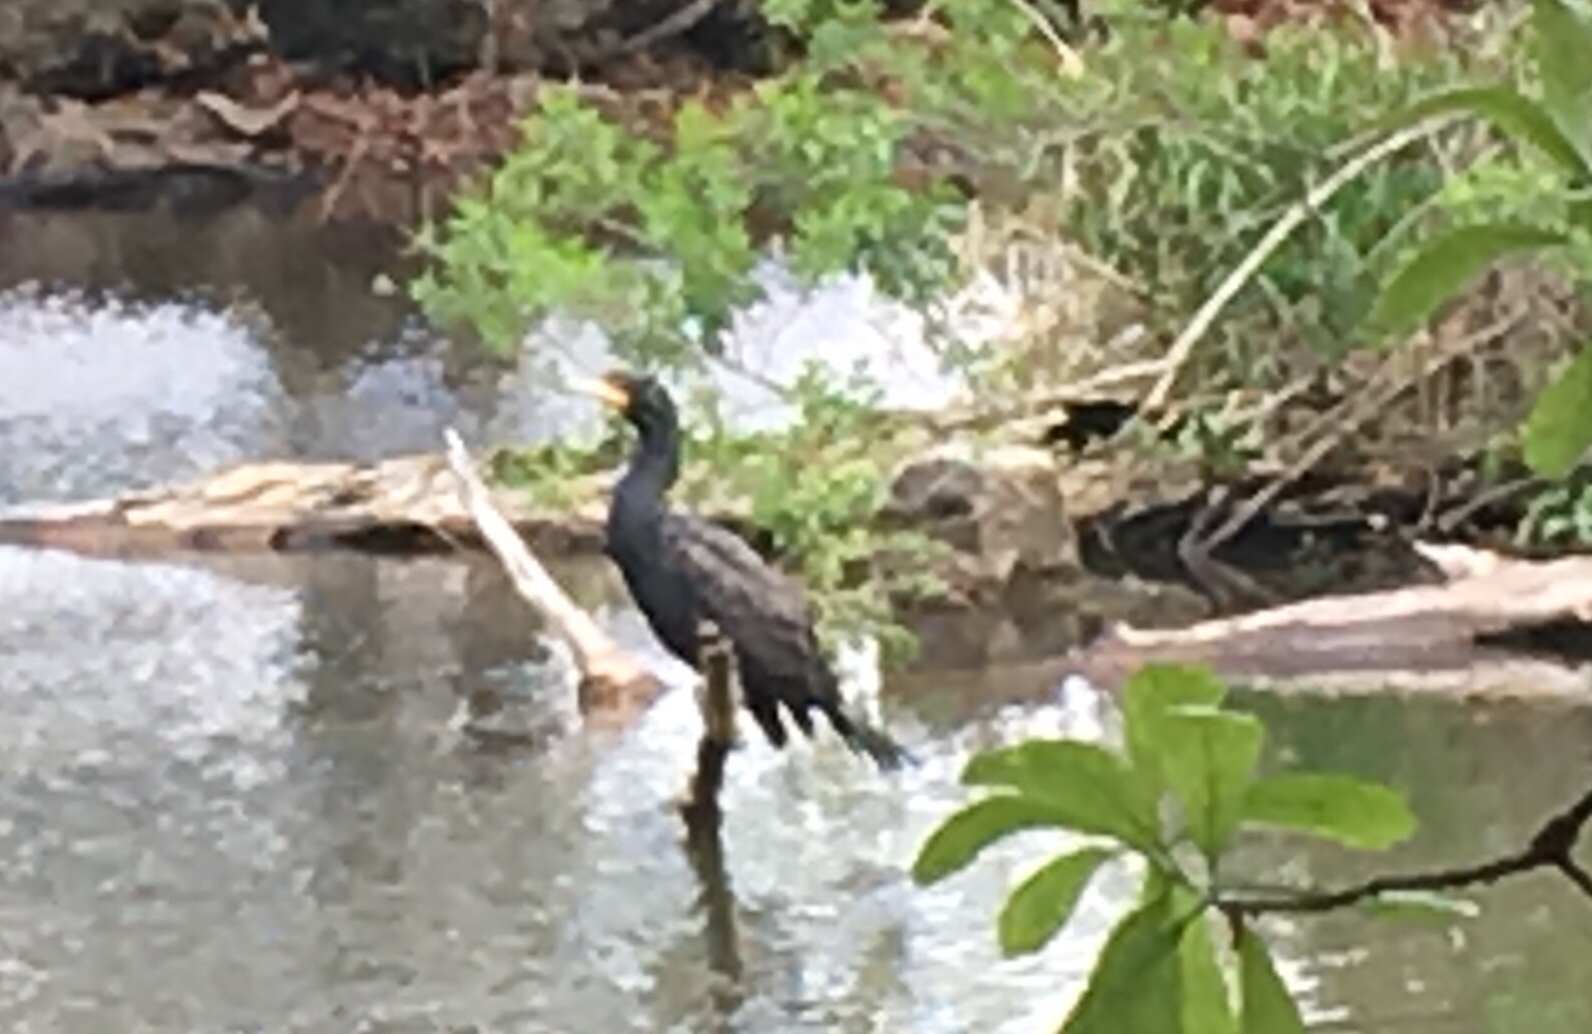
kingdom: Animalia
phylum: Chordata
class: Aves
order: Suliformes
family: Phalacrocoracidae
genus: Phalacrocorax
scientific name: Phalacrocorax auritus
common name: Double-crested cormorant
